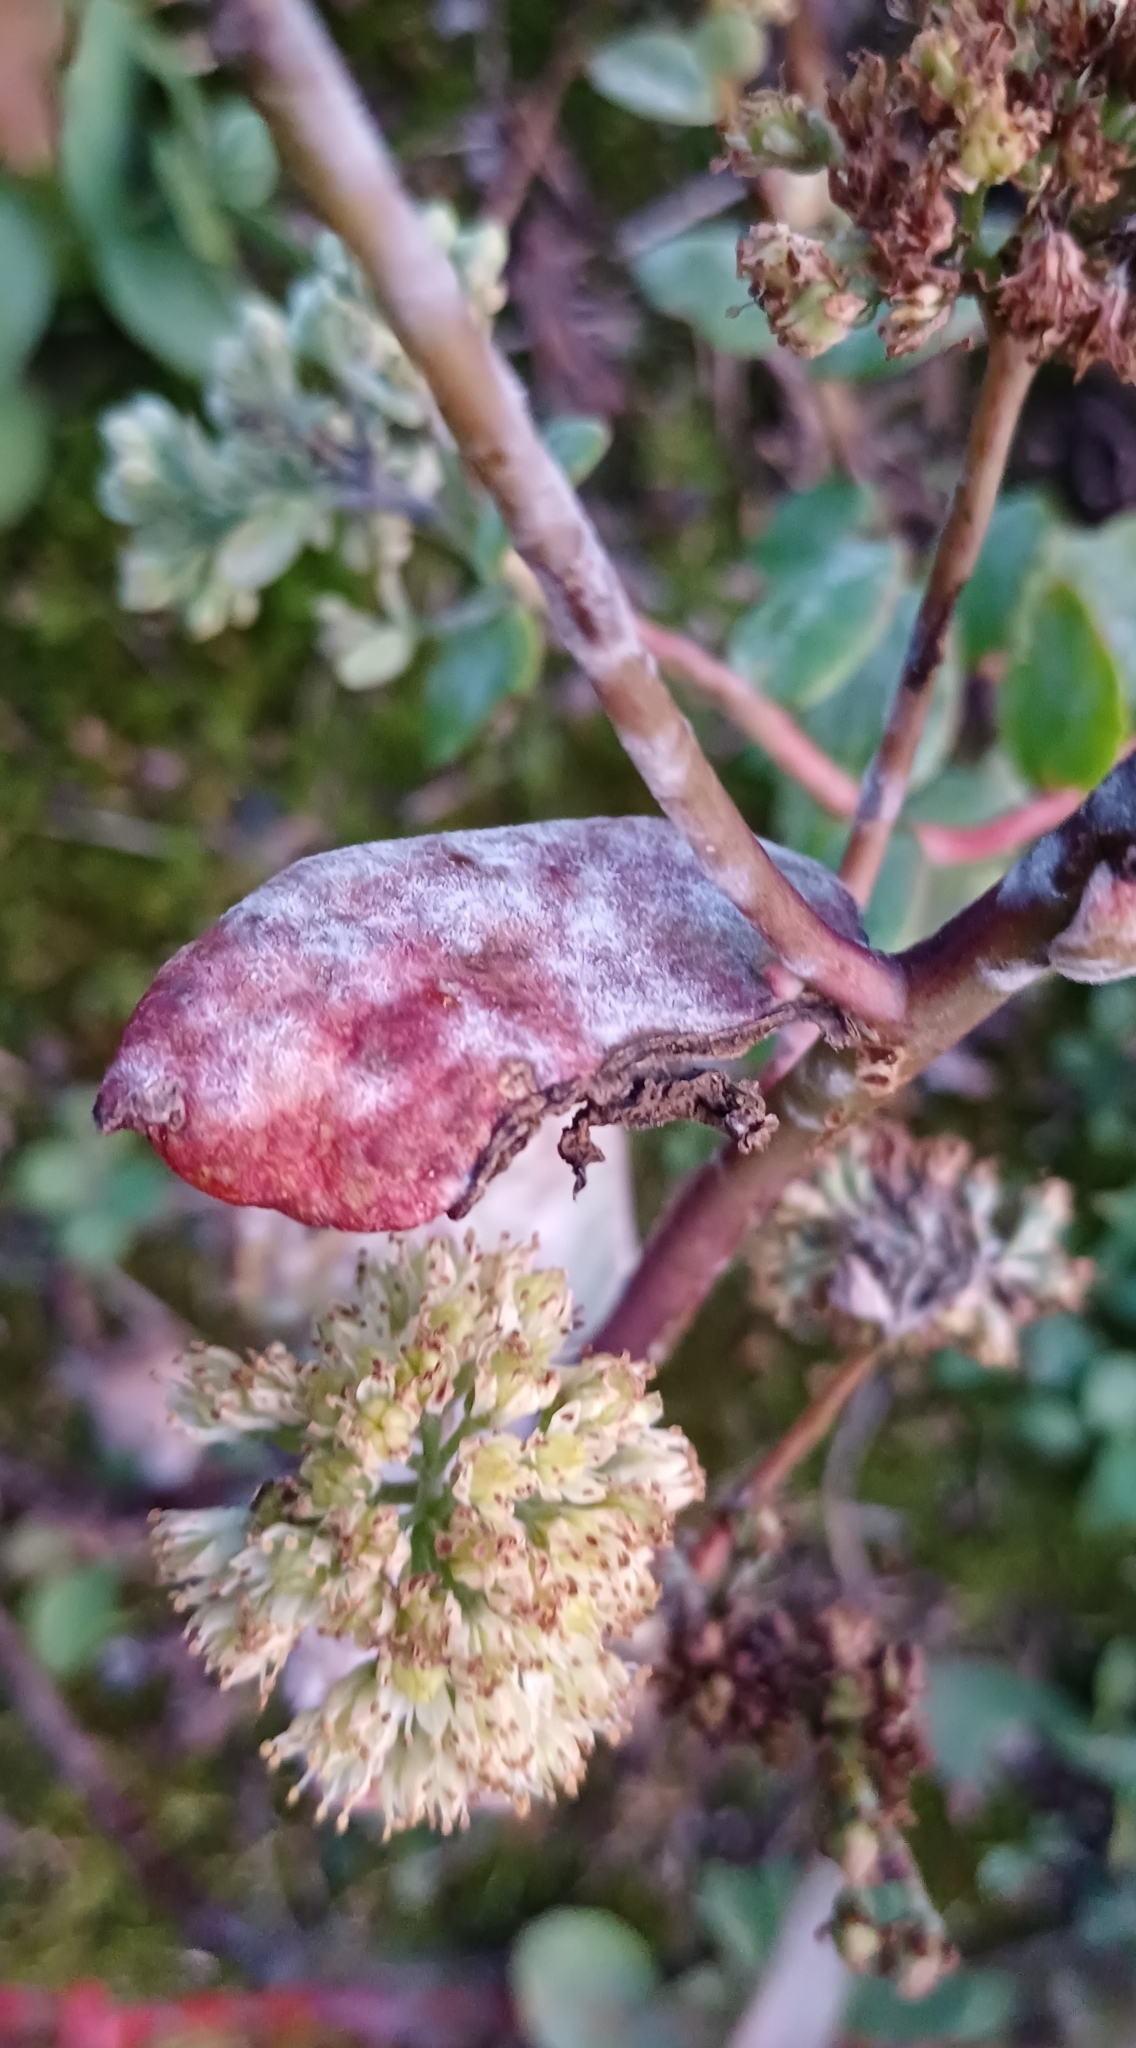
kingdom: Fungi
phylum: Ascomycota
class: Leotiomycetes
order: Helotiales
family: Erysiphaceae
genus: Erysiphe
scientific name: Erysiphe sedi
